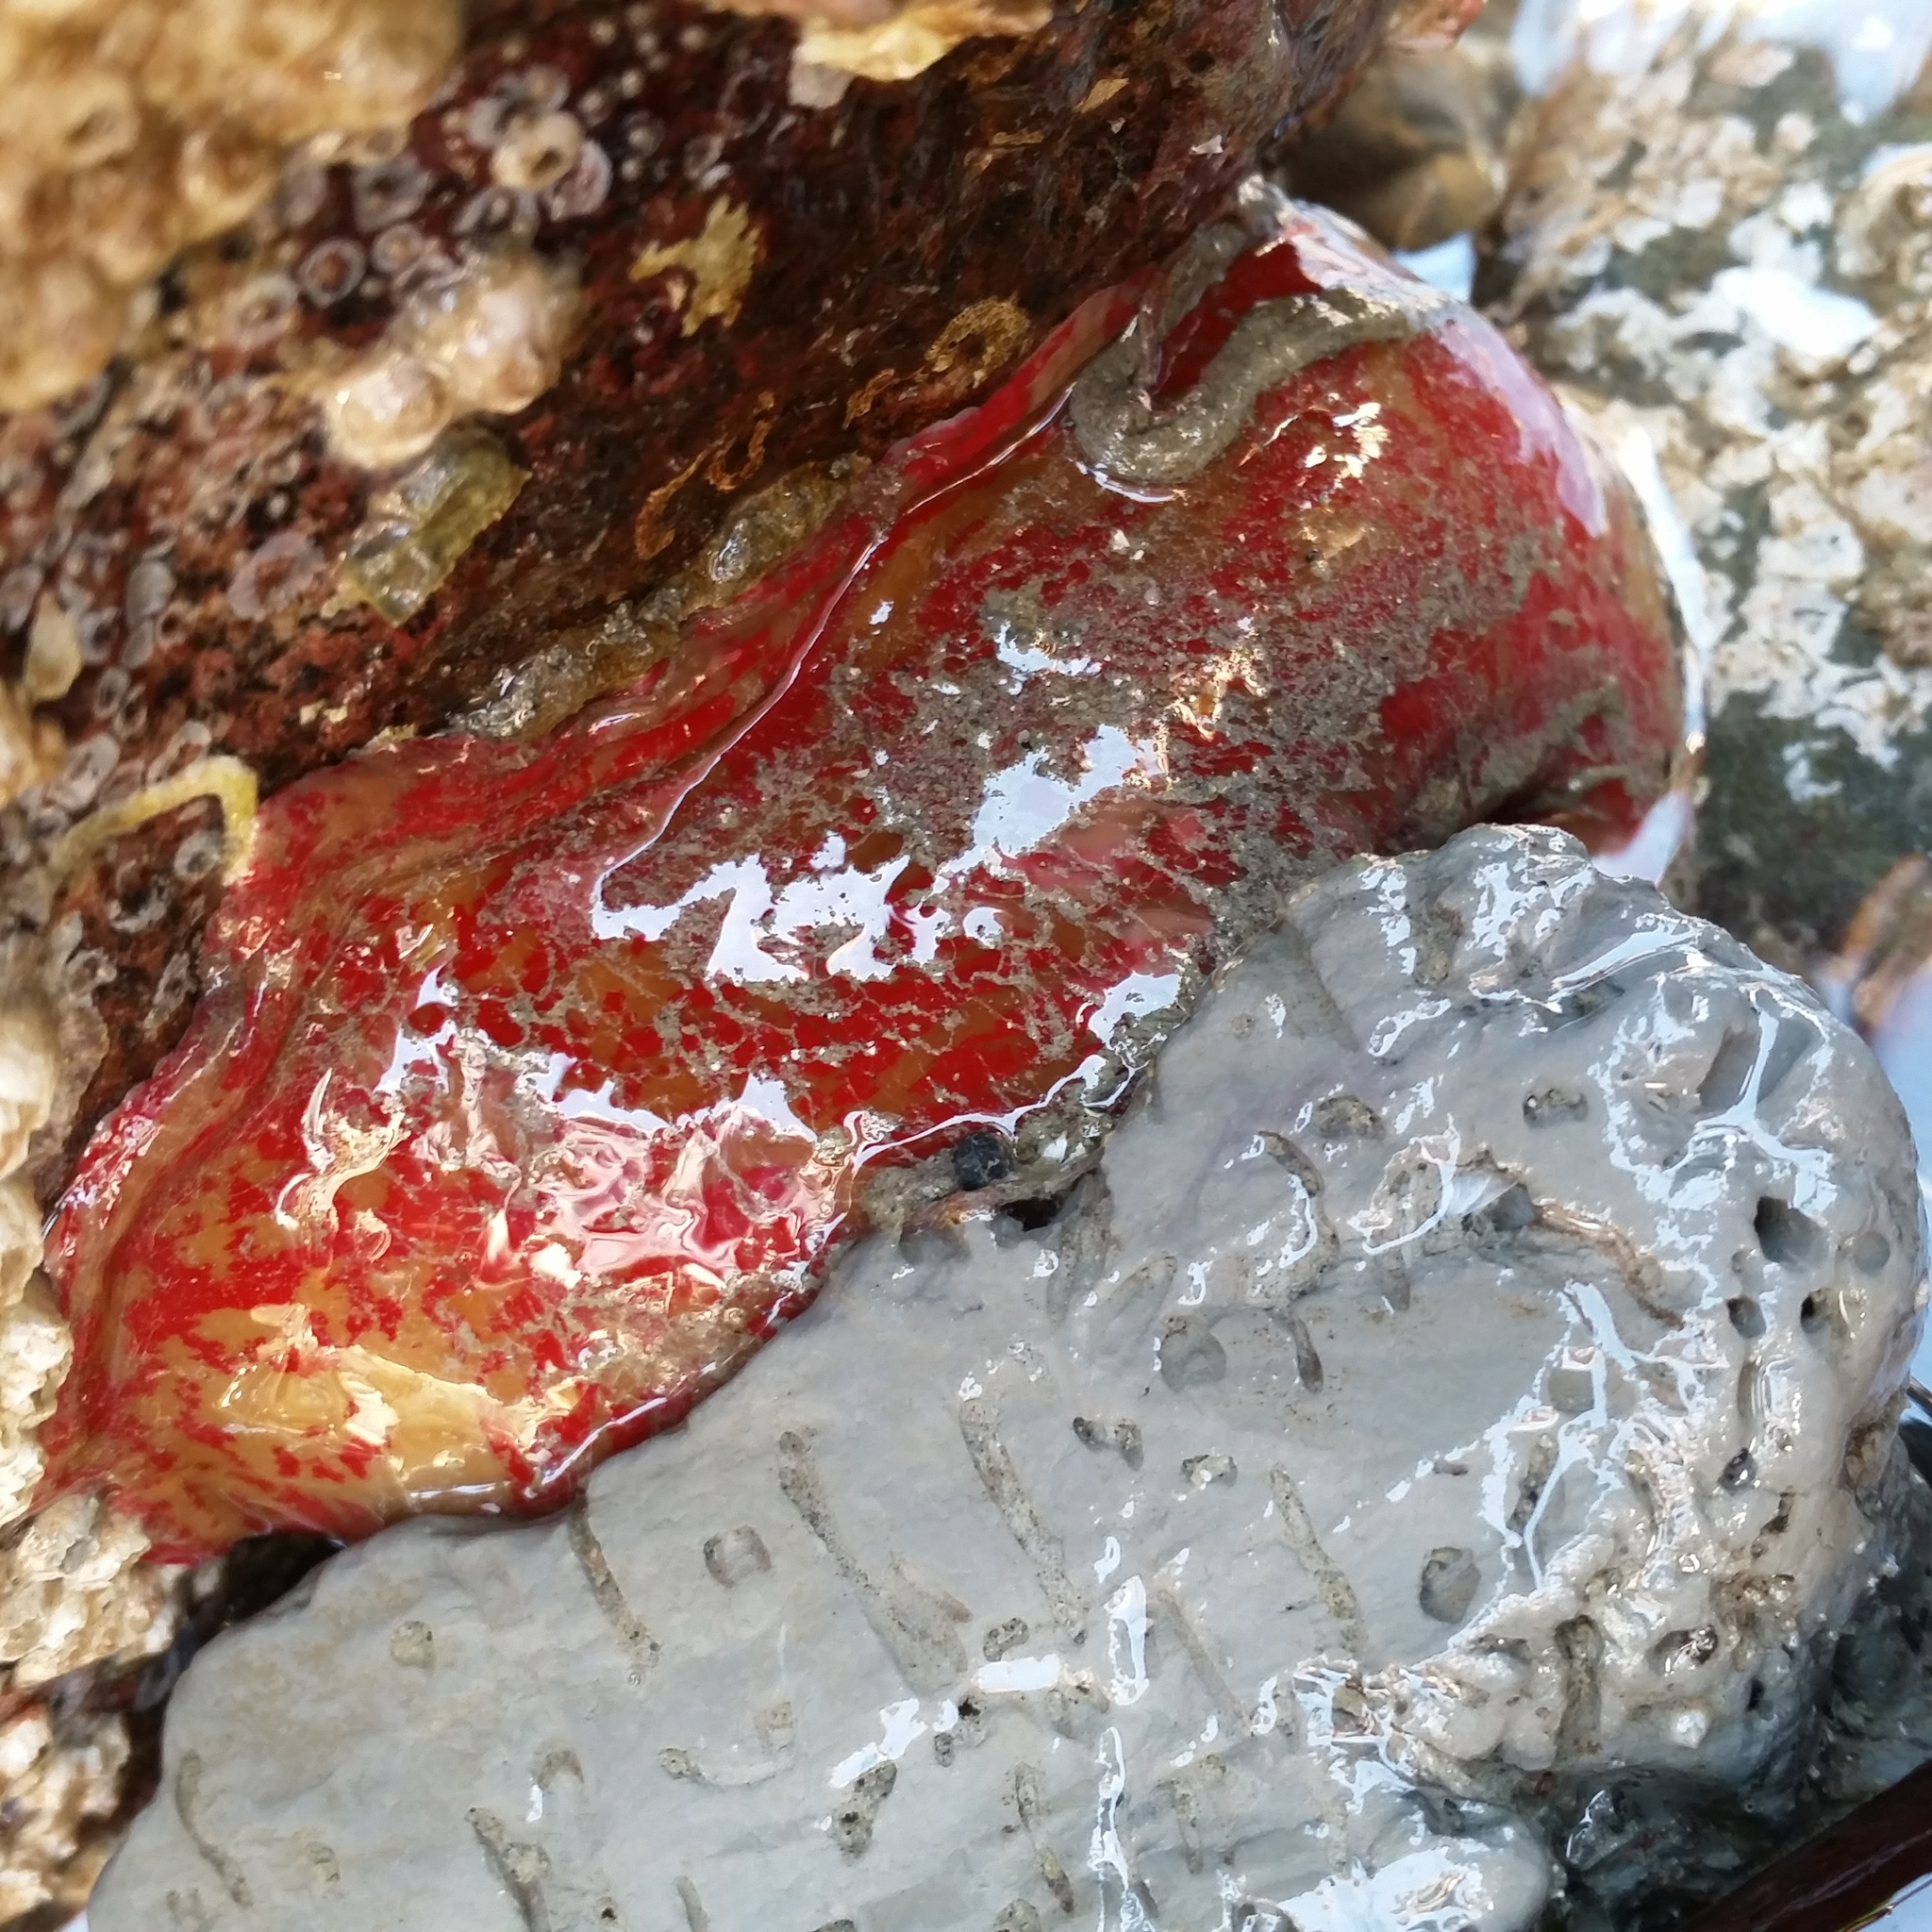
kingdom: Animalia
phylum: Cnidaria
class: Anthozoa
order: Actiniaria
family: Actiniidae
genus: Urticina
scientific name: Urticina grebelnyi
